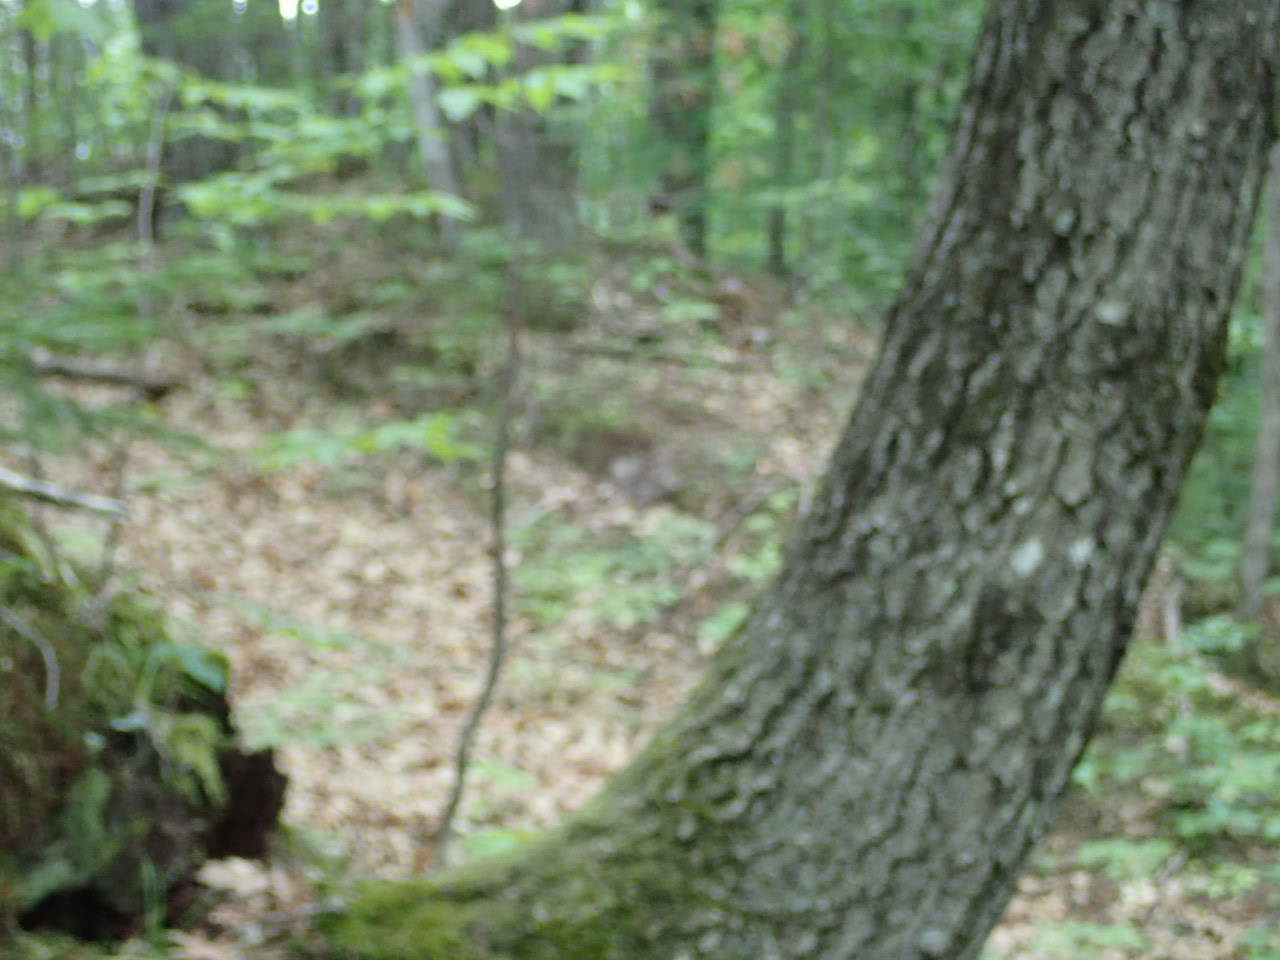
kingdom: Animalia
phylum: Chordata
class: Mammalia
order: Rodentia
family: Sciuridae
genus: Sciurus
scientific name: Sciurus carolinensis
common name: Eastern gray squirrel
